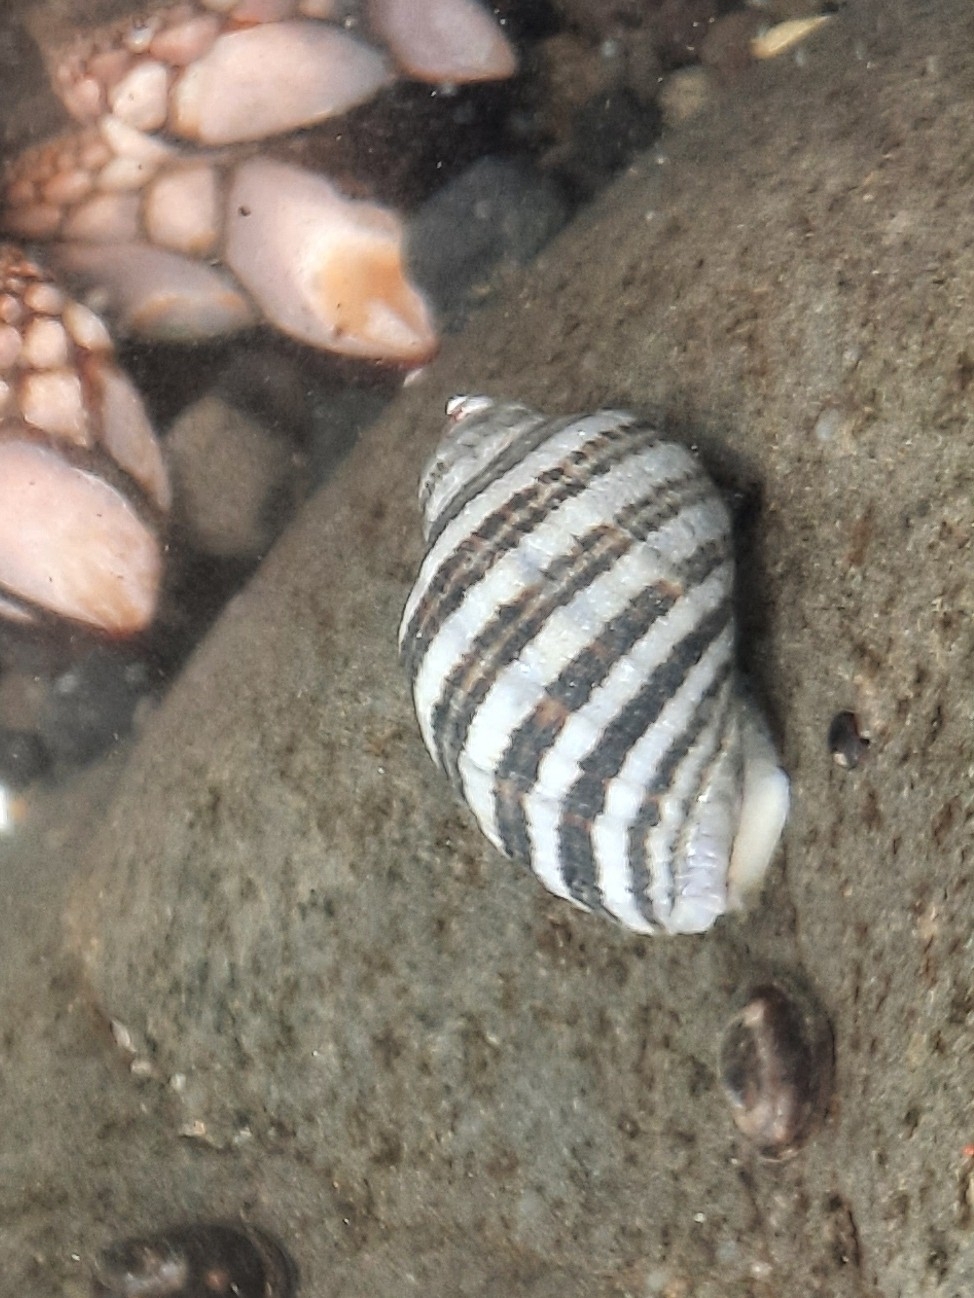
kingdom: Animalia
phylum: Mollusca
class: Gastropoda
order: Neogastropoda
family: Muricidae
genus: Nucella
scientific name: Nucella ostrina
